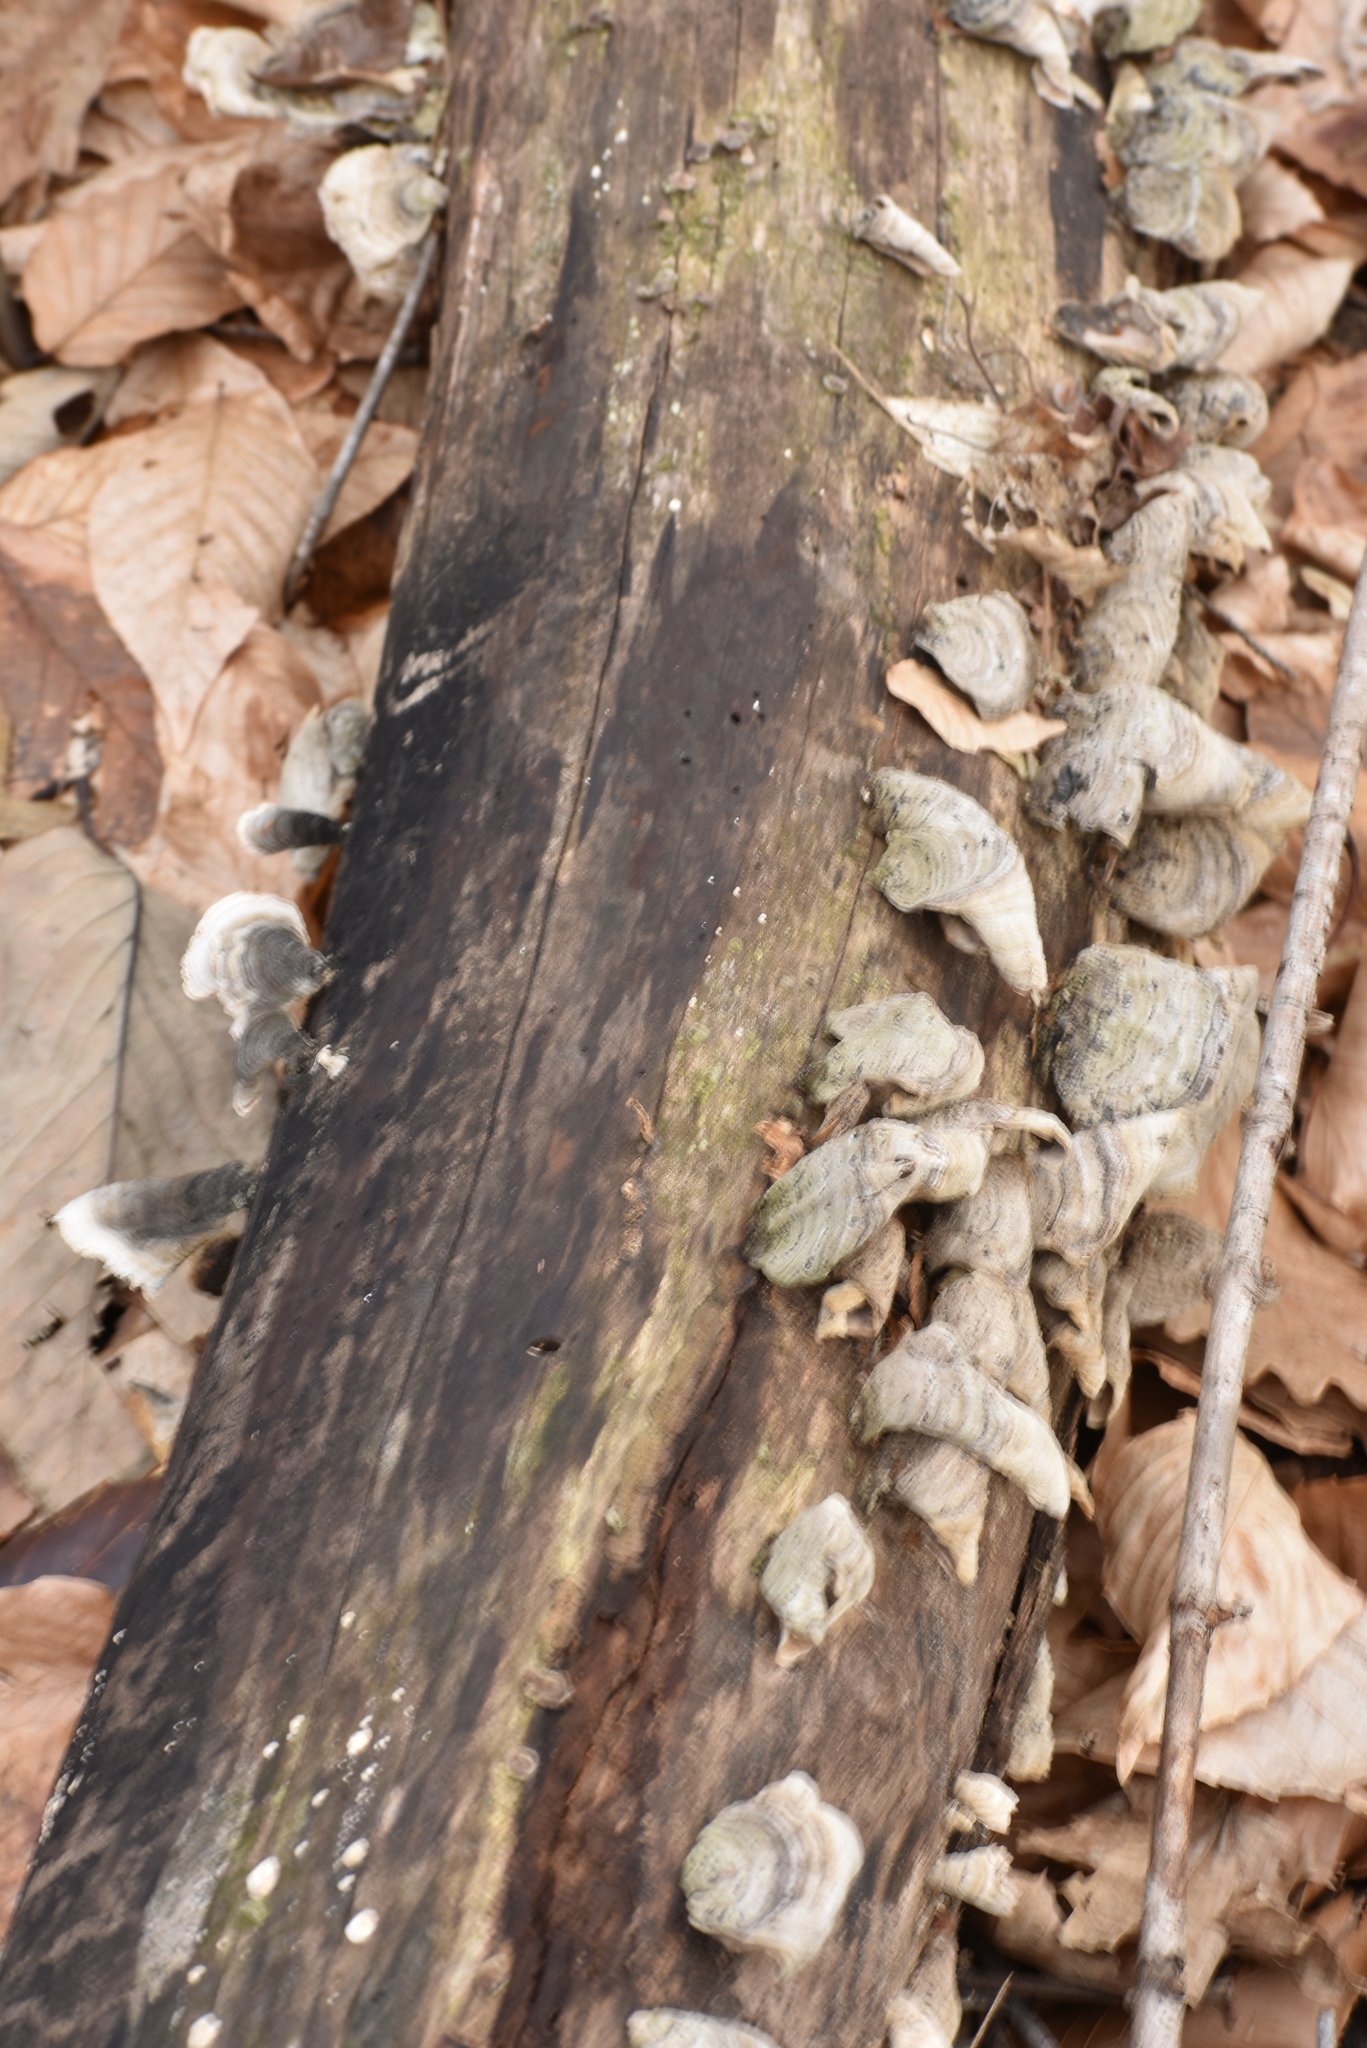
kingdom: Fungi
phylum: Basidiomycota
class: Agaricomycetes
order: Russulales
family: Stereaceae
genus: Stereum
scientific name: Stereum ostrea
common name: False turkeytail
